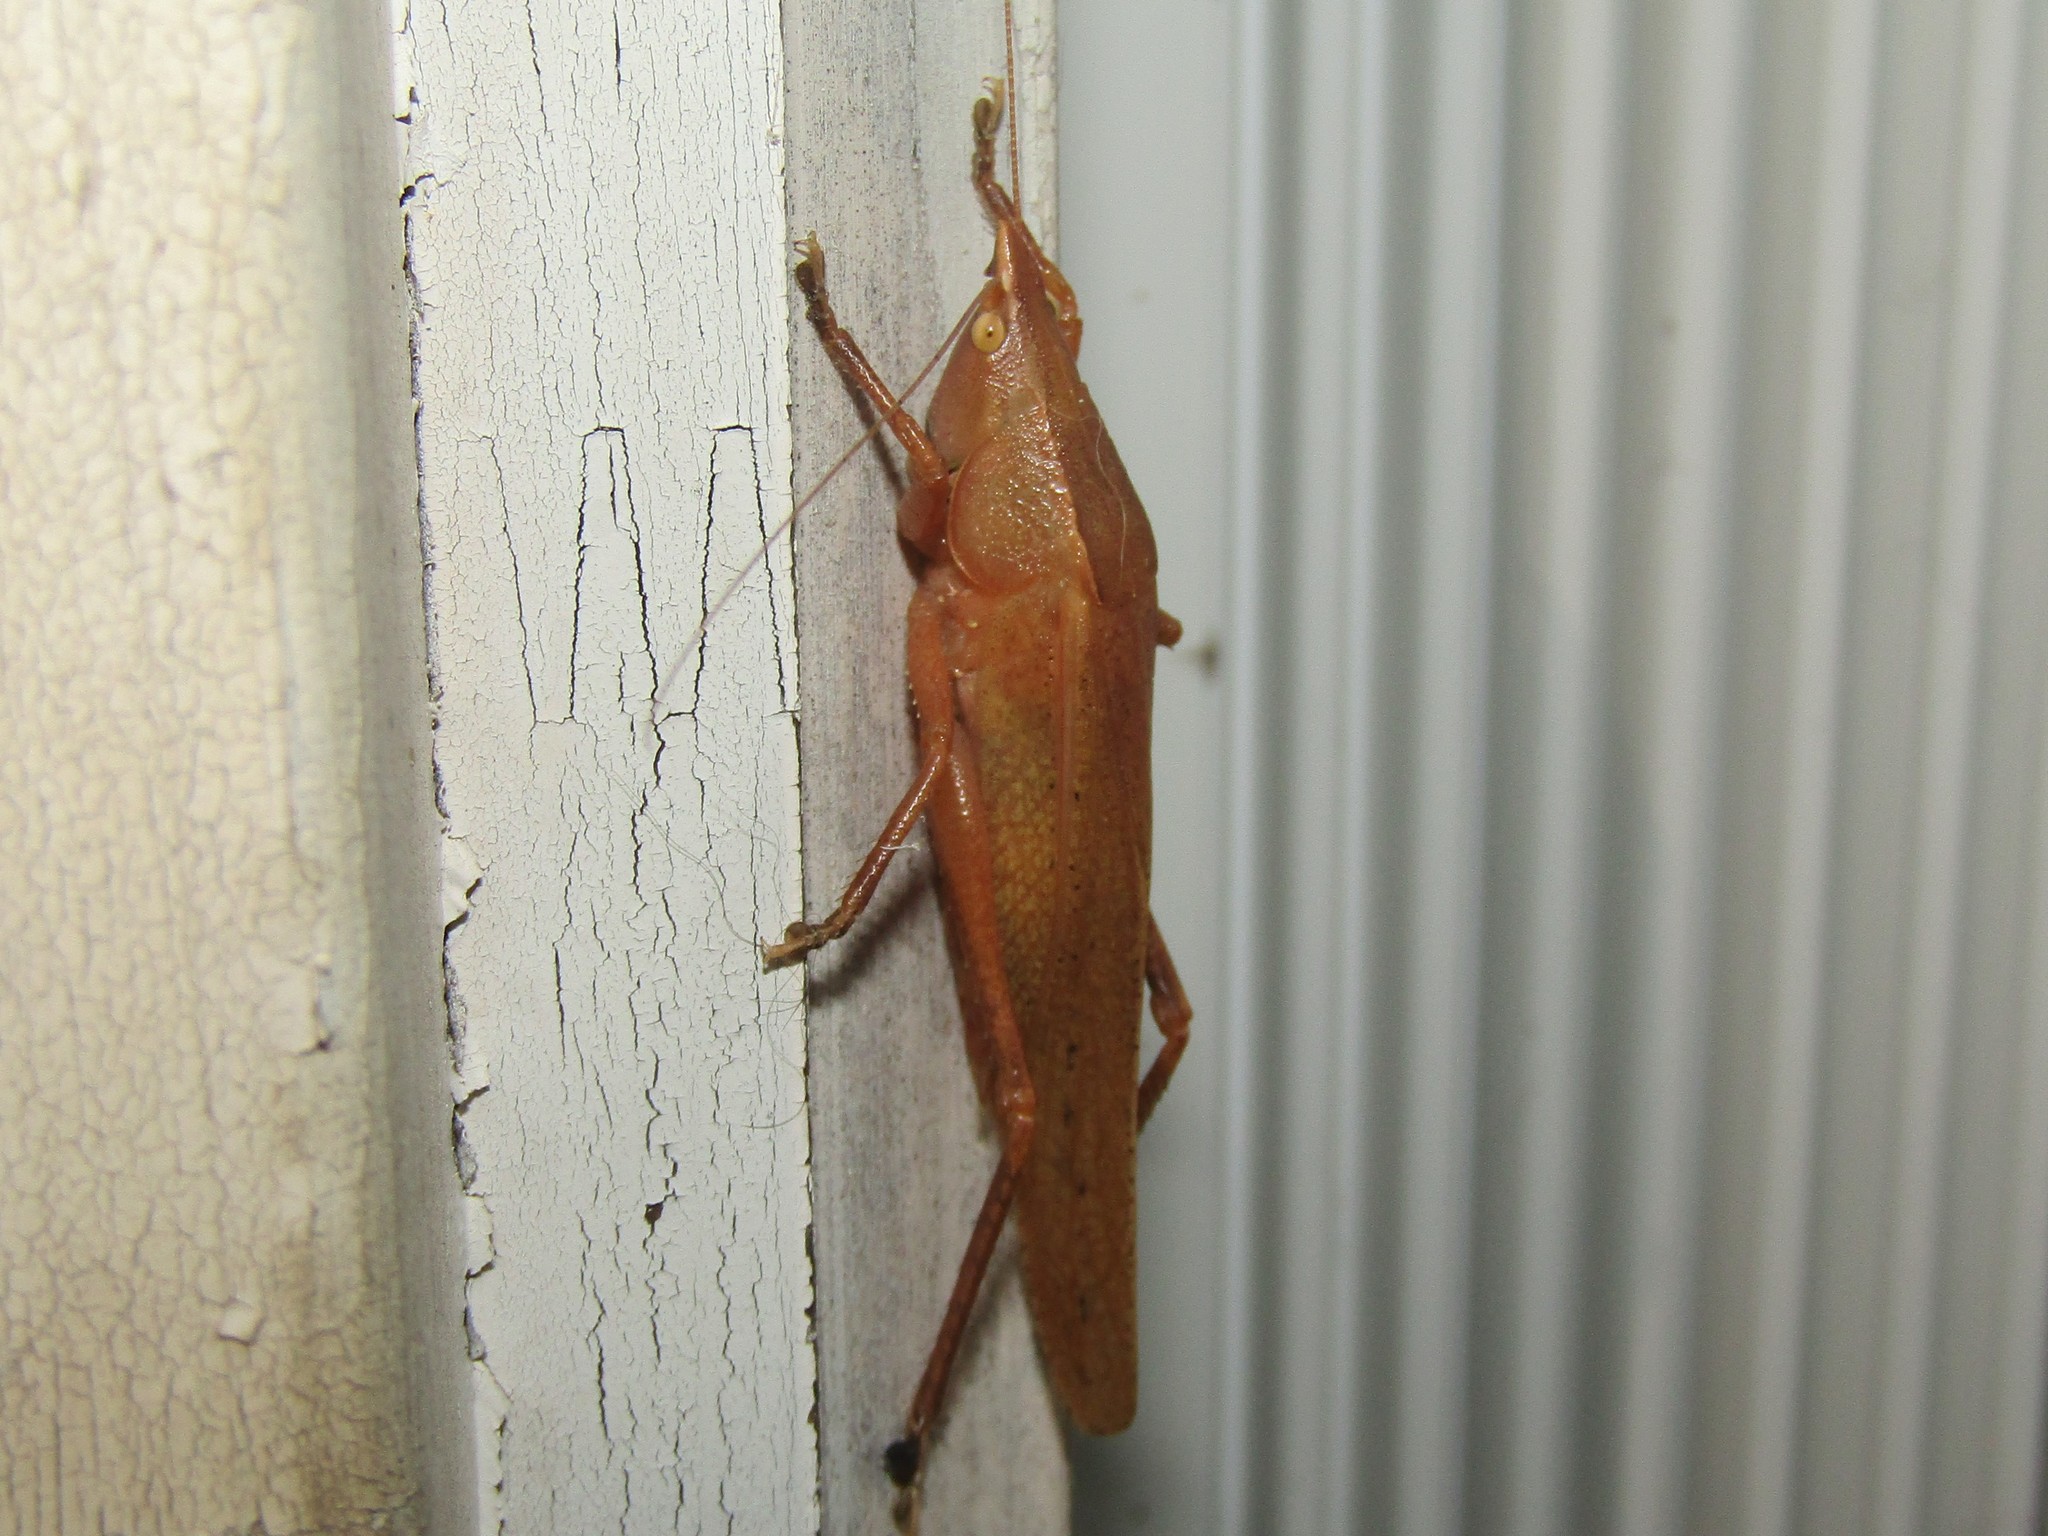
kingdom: Animalia
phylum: Arthropoda
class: Insecta
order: Orthoptera
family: Tettigoniidae
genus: Pyrgocorypha
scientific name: Pyrgocorypha uncinata
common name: Hook-faced conehead
